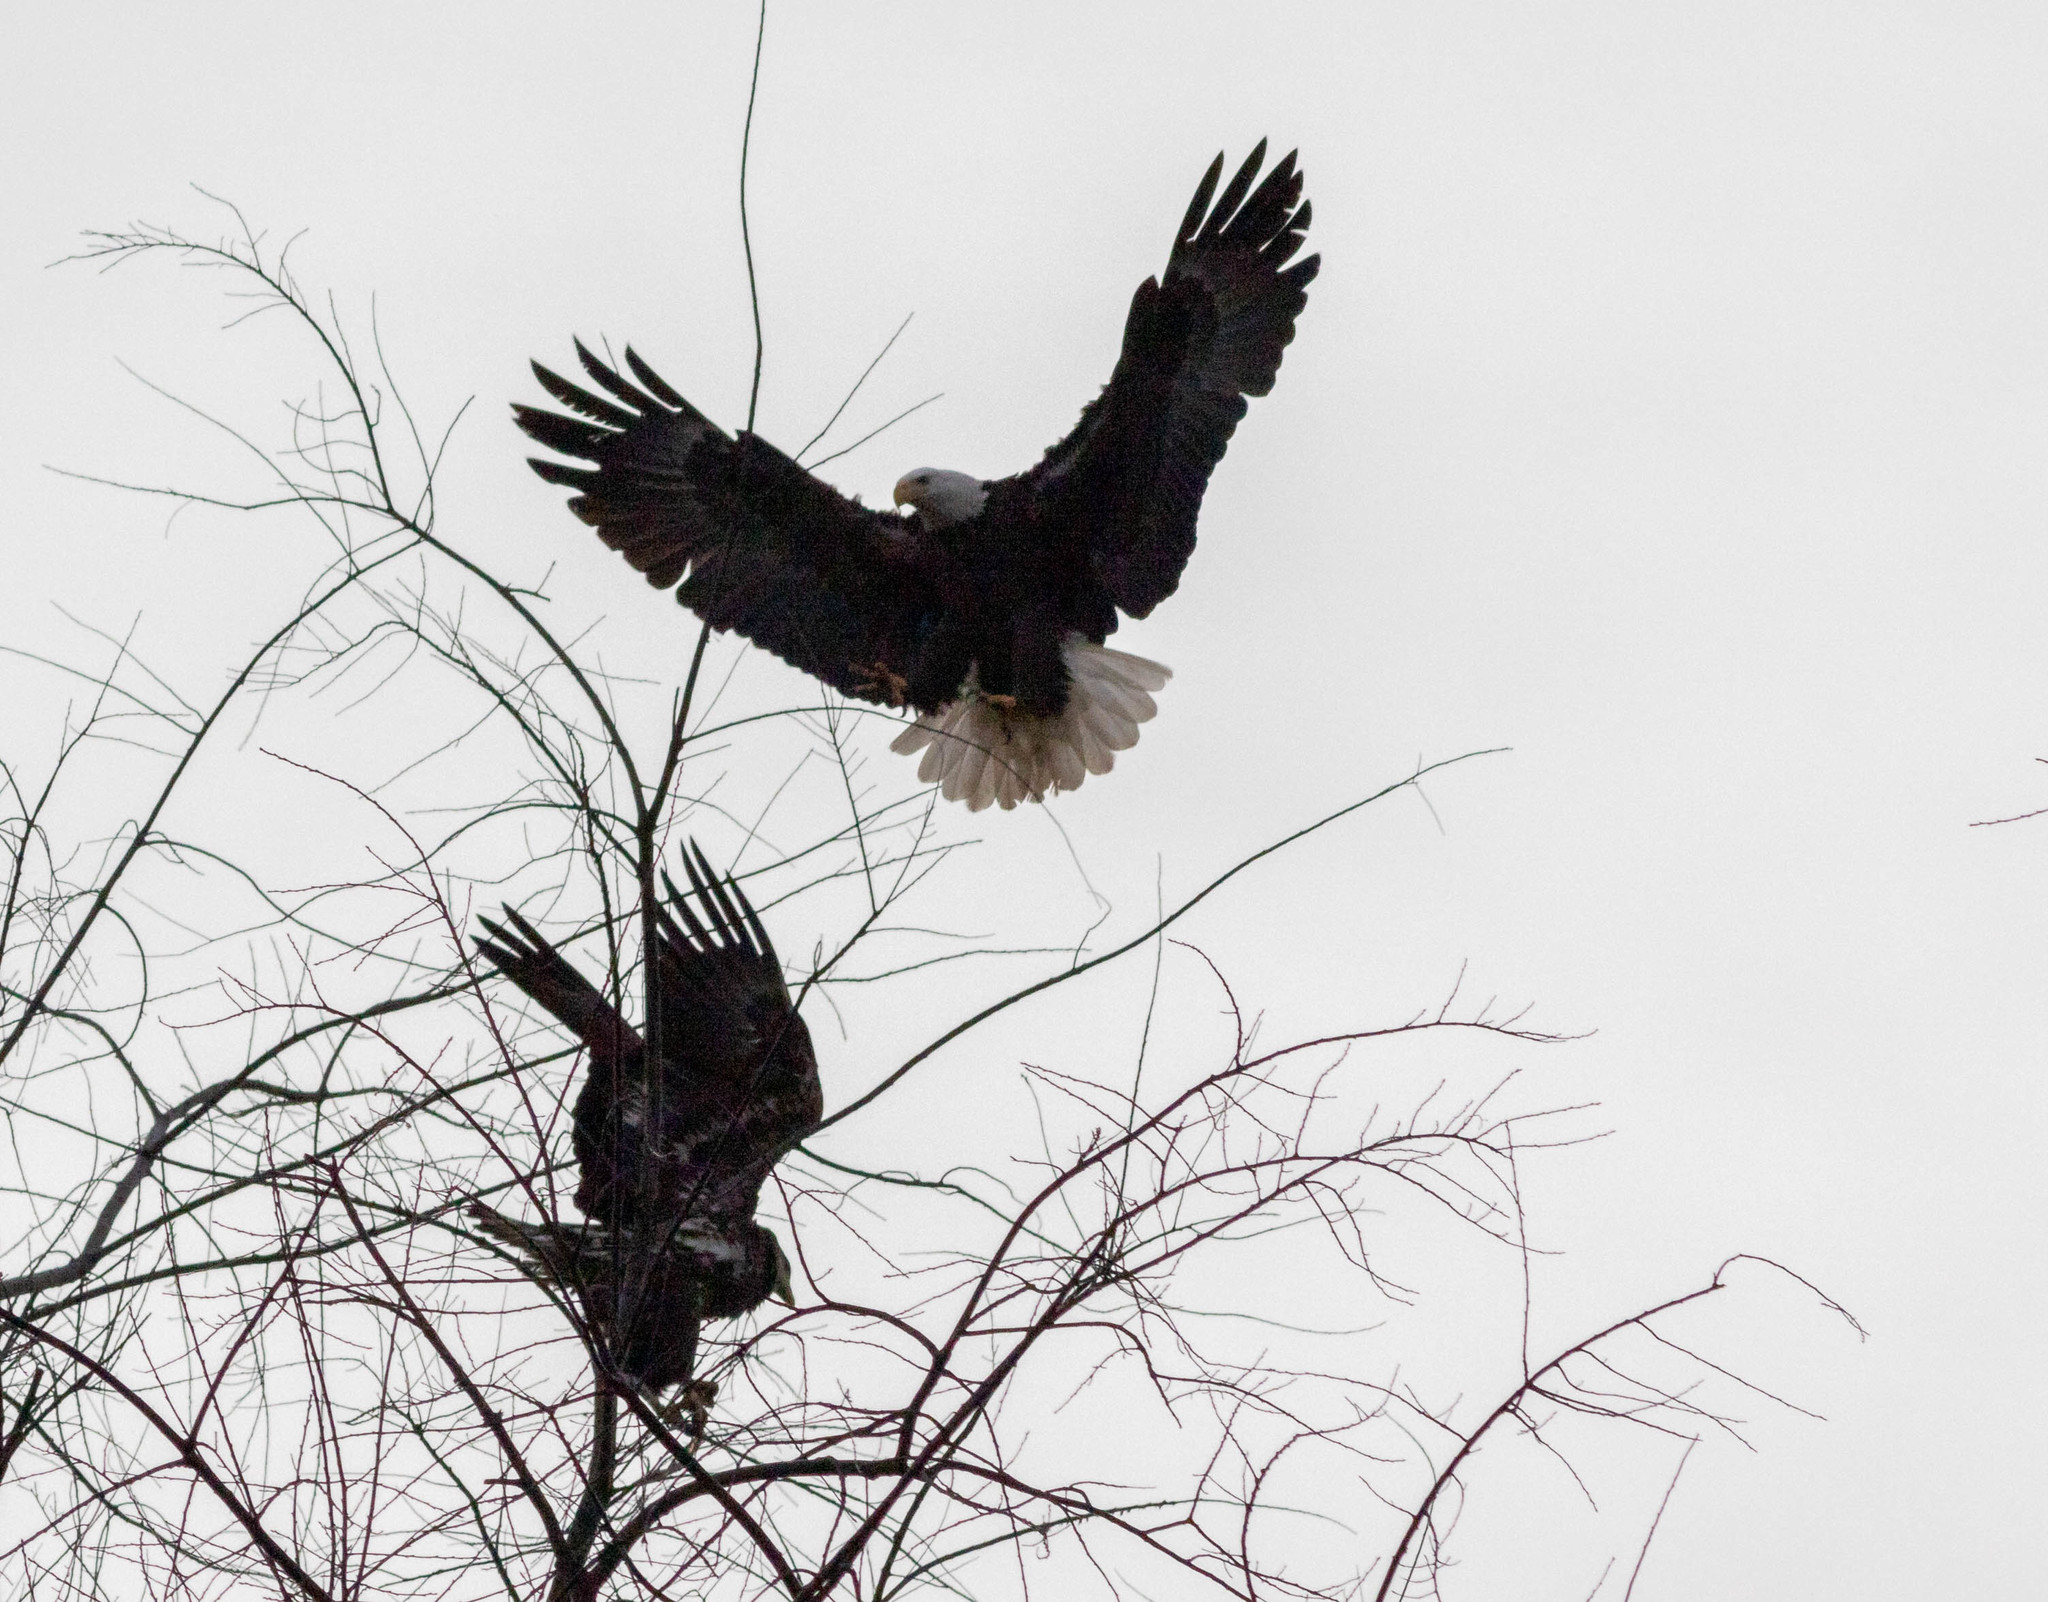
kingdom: Animalia
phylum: Chordata
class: Aves
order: Accipitriformes
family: Accipitridae
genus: Haliaeetus
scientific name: Haliaeetus leucocephalus
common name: Bald eagle
